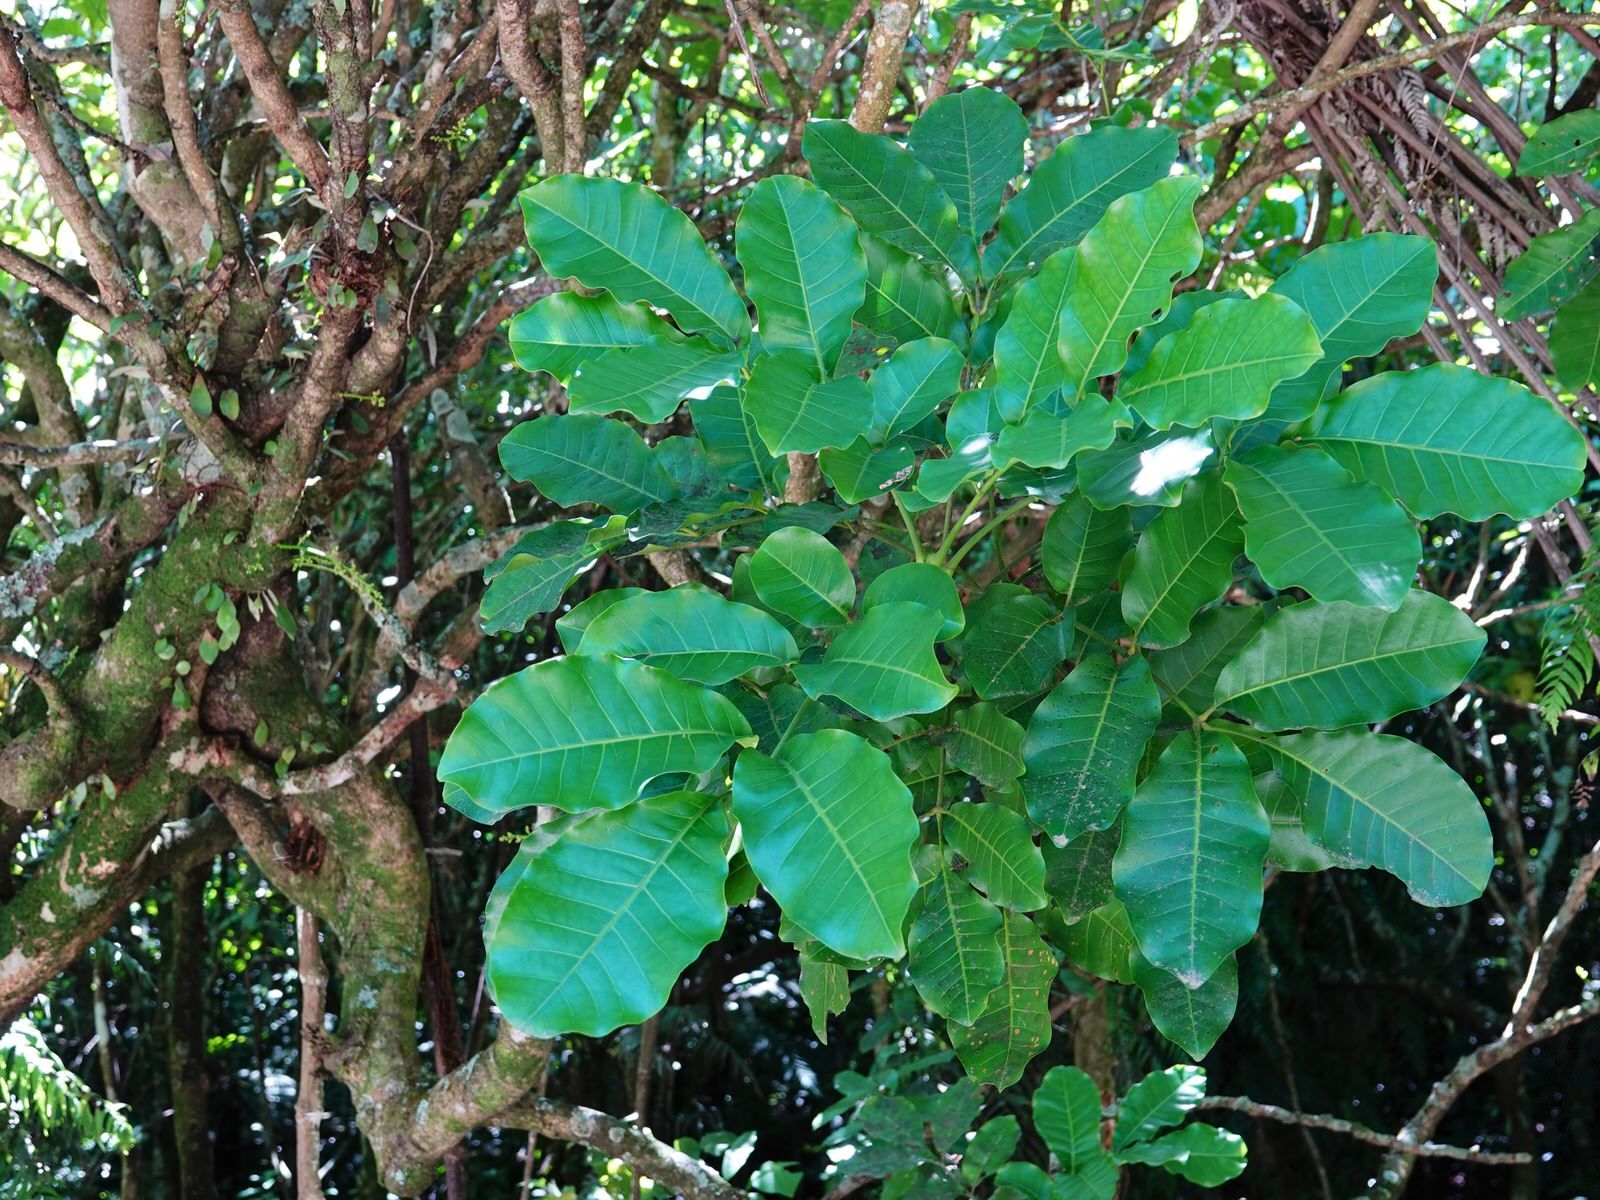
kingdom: Plantae
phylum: Tracheophyta
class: Magnoliopsida
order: Sapindales
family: Meliaceae
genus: Didymocheton
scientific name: Didymocheton spectabilis
